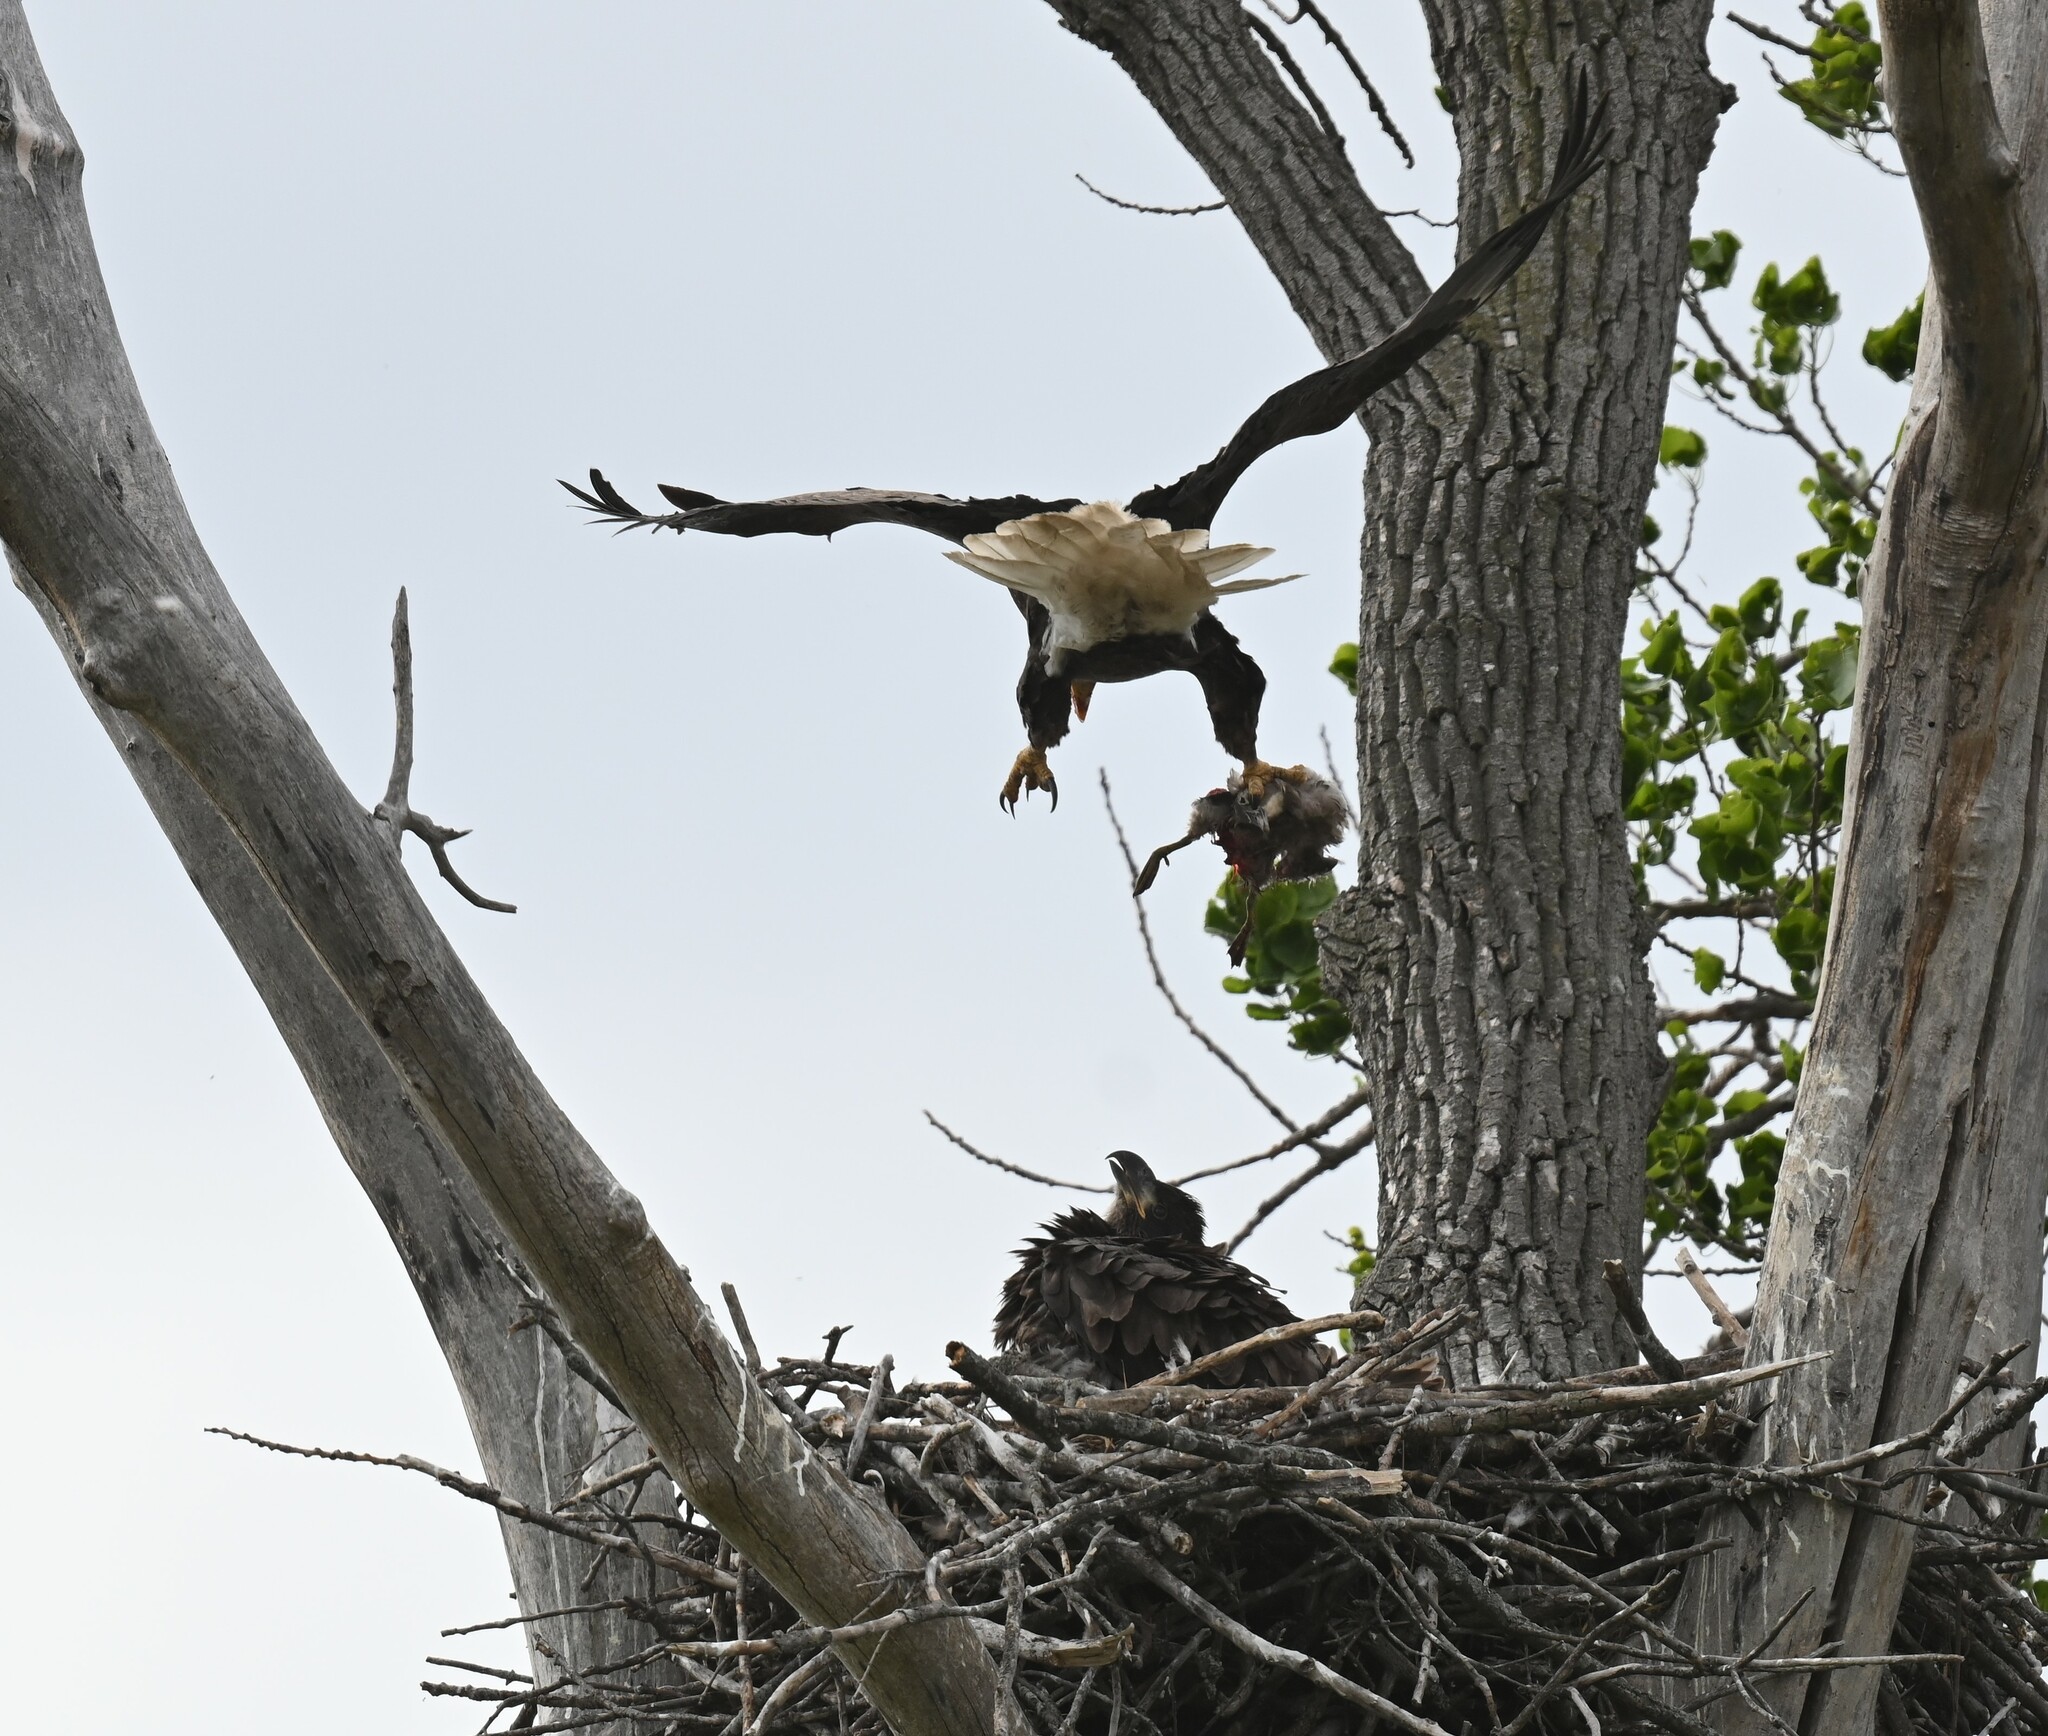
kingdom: Animalia
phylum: Chordata
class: Aves
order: Accipitriformes
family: Accipitridae
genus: Haliaeetus
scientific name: Haliaeetus leucocephalus
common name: Bald eagle
